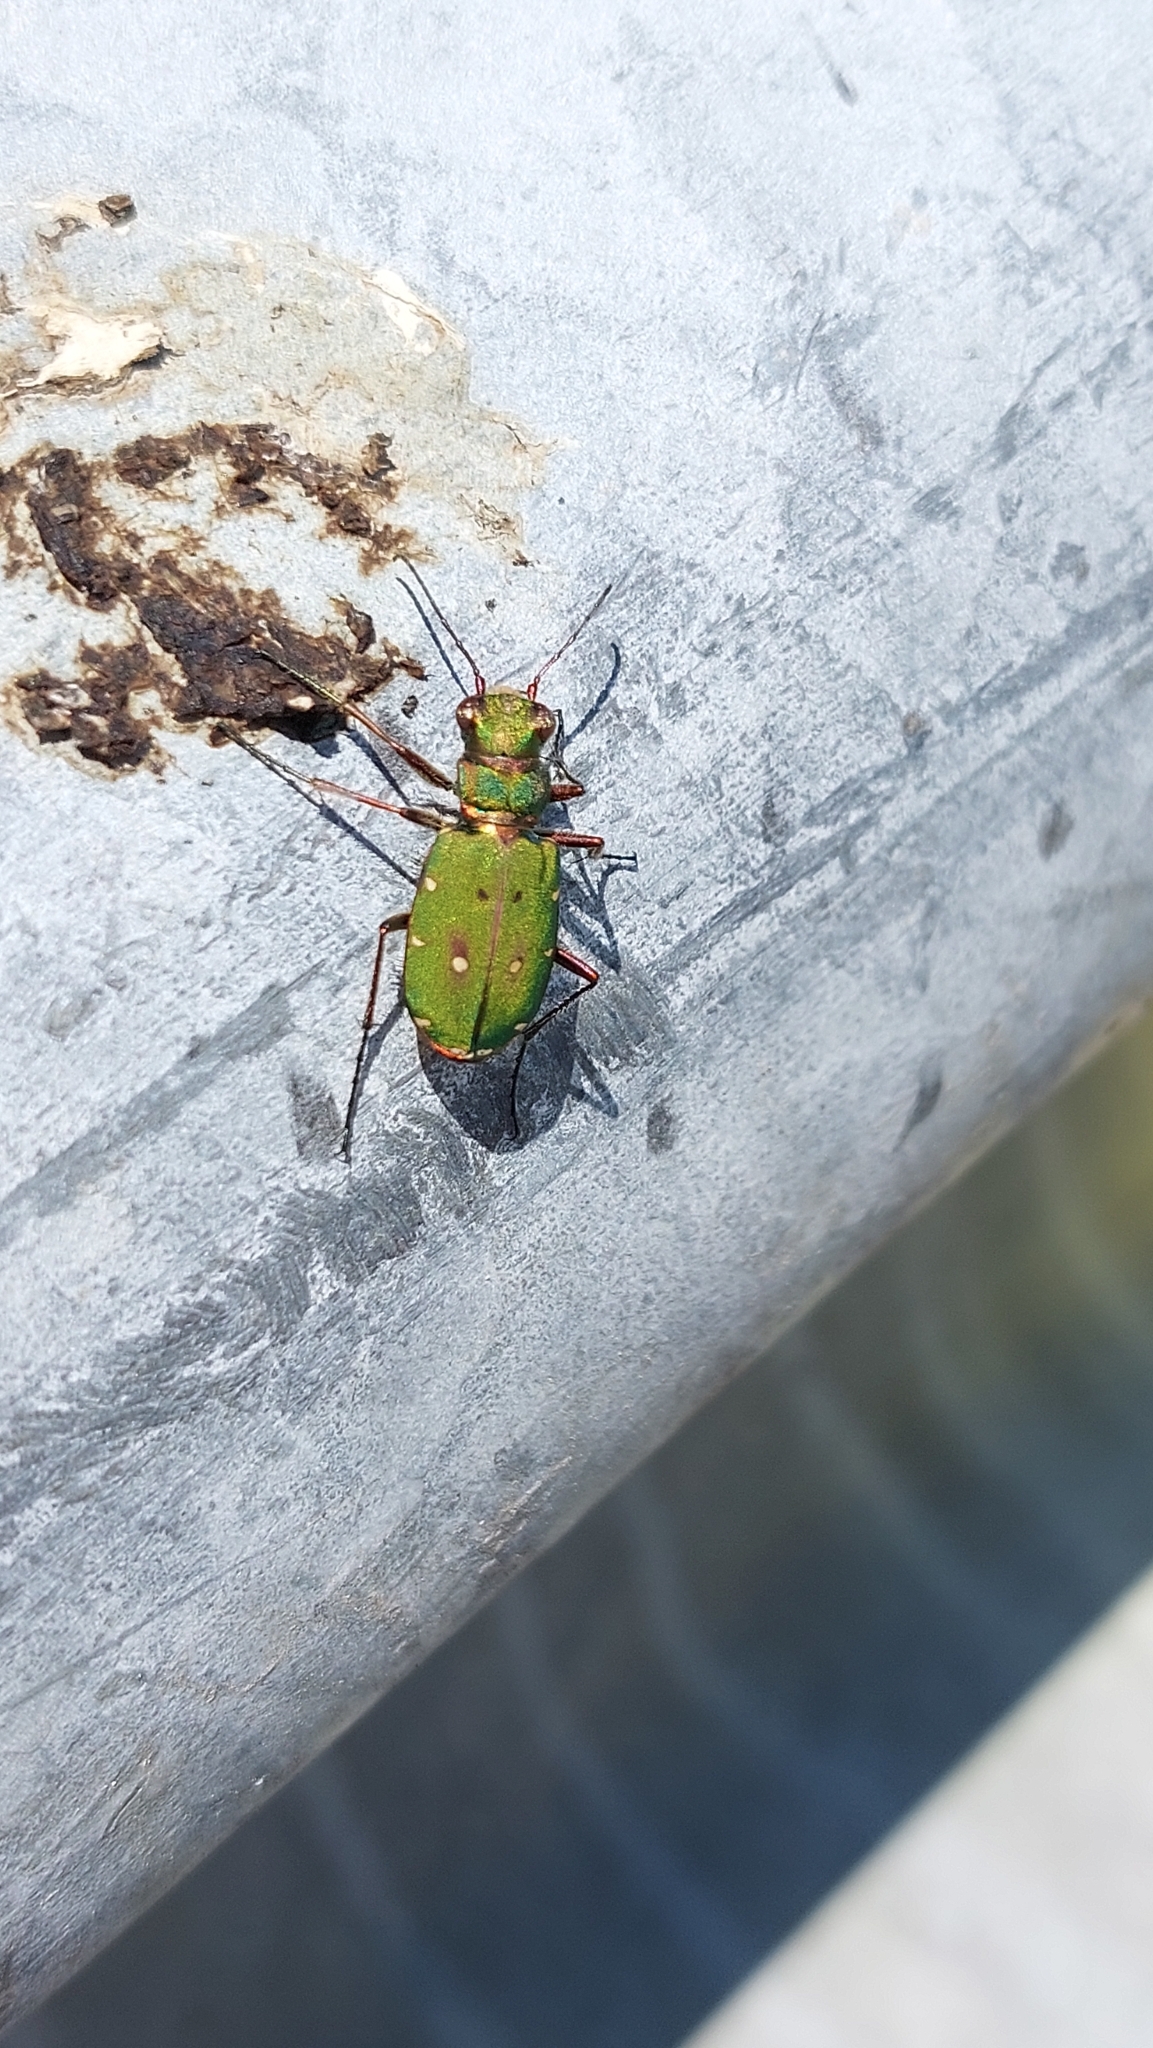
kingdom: Animalia
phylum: Arthropoda
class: Insecta
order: Coleoptera
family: Carabidae
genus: Cicindela
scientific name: Cicindela campestris
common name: Common tiger beetle
